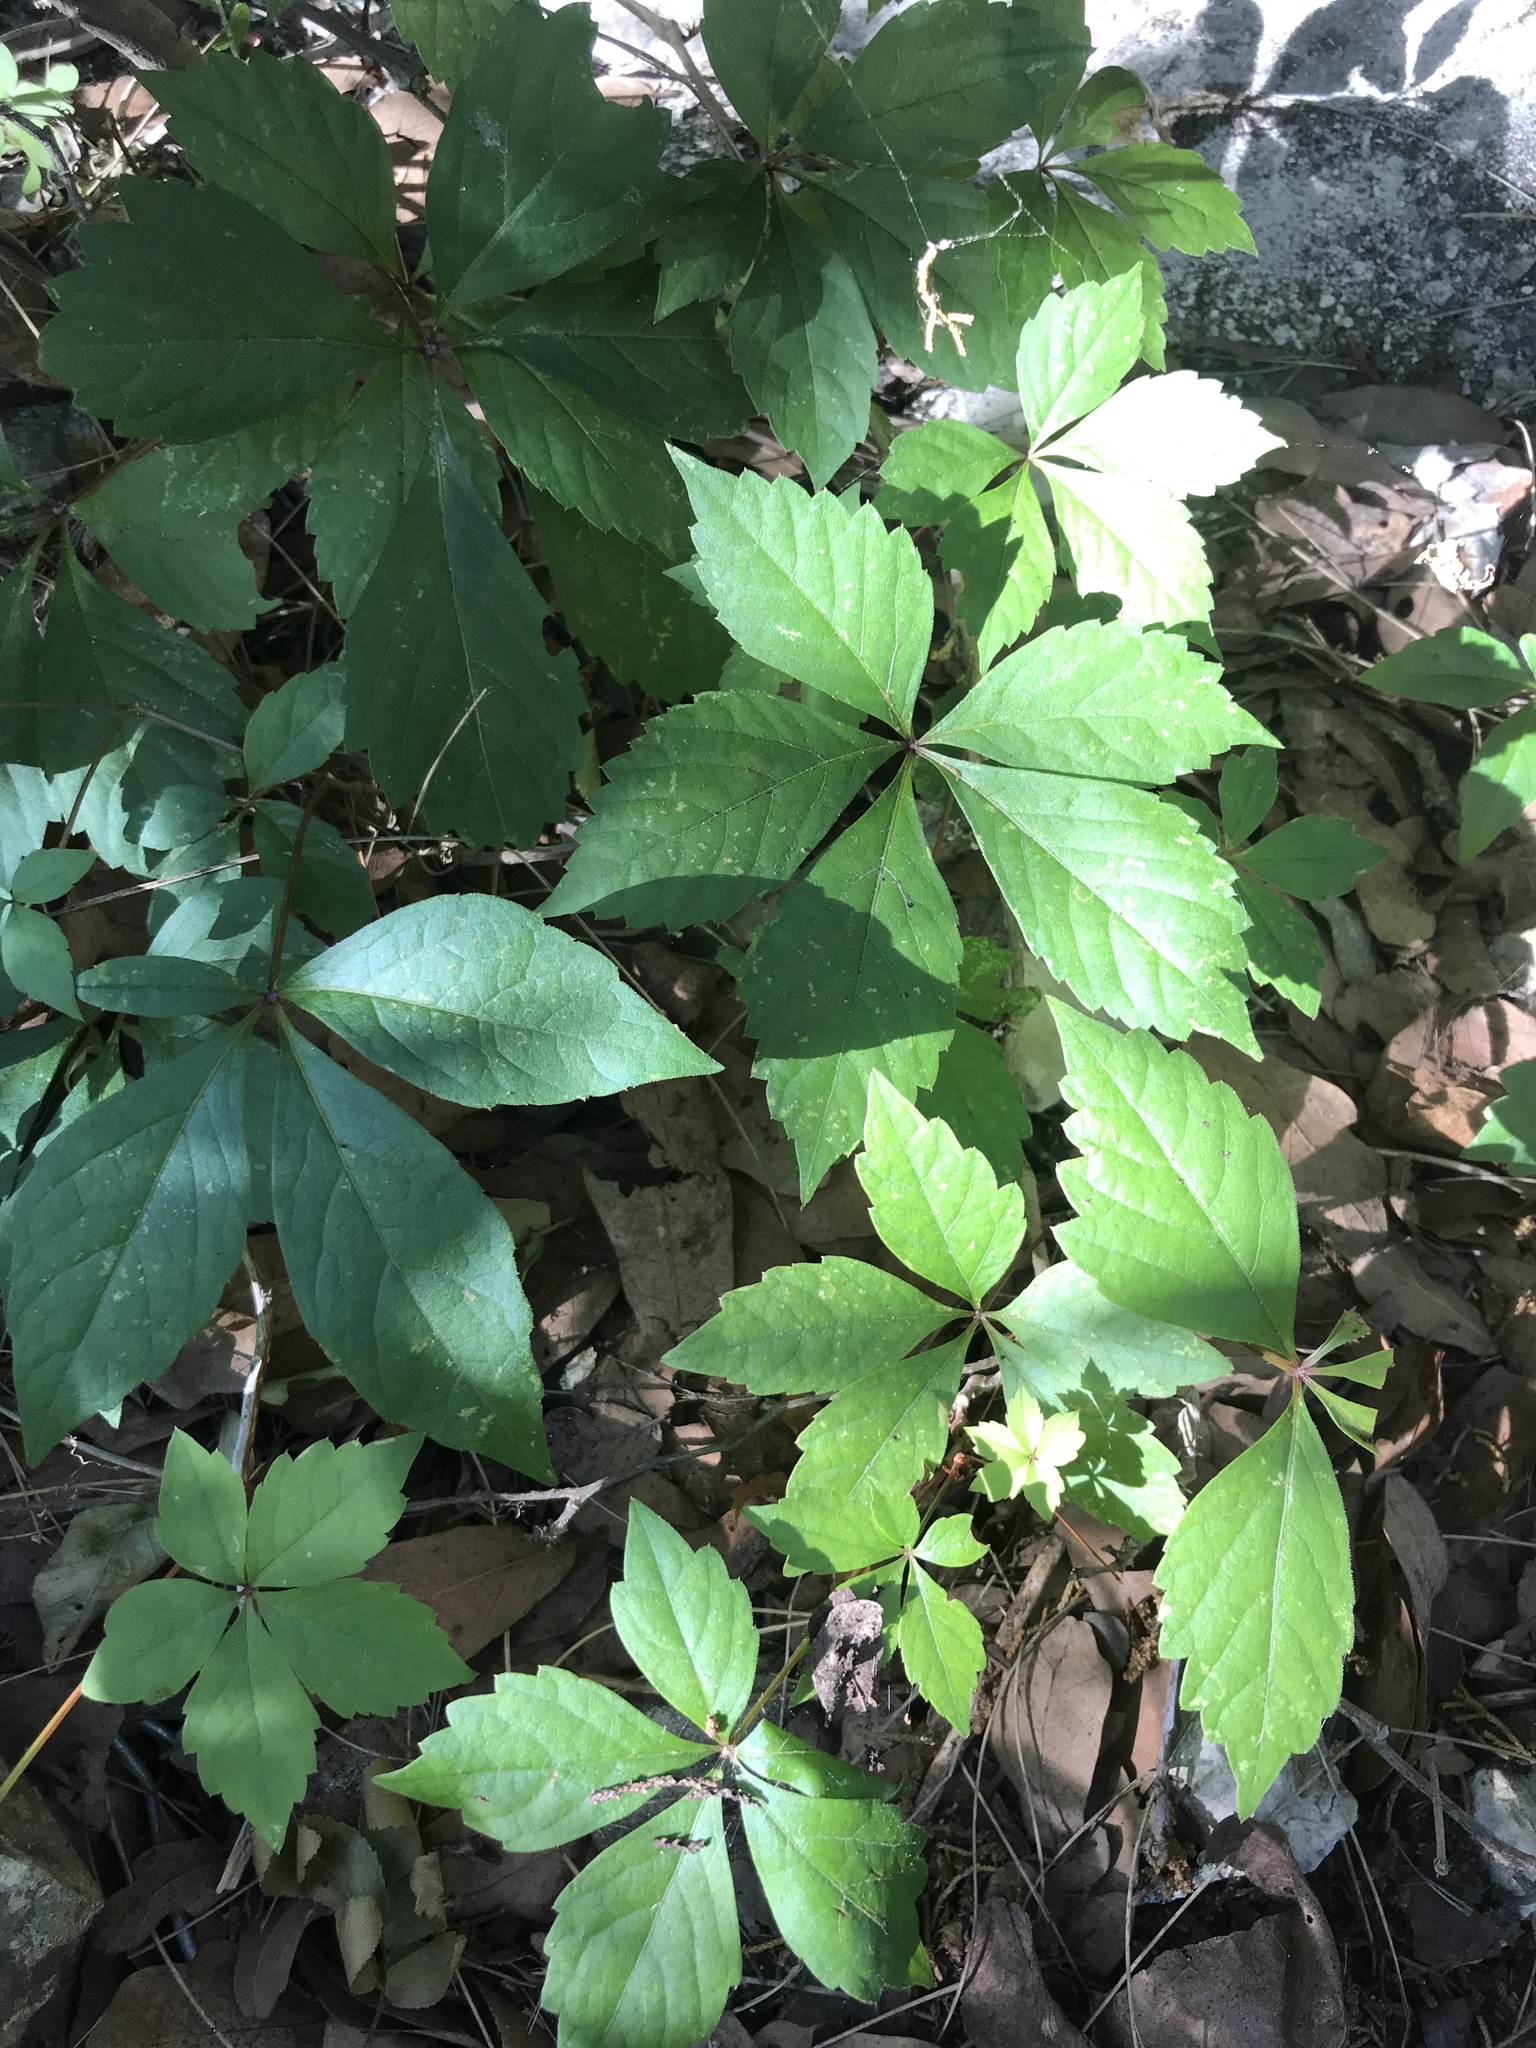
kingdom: Plantae
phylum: Tracheophyta
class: Magnoliopsida
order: Vitales
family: Vitaceae
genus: Parthenocissus
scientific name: Parthenocissus quinquefolia
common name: Virginia-creeper
